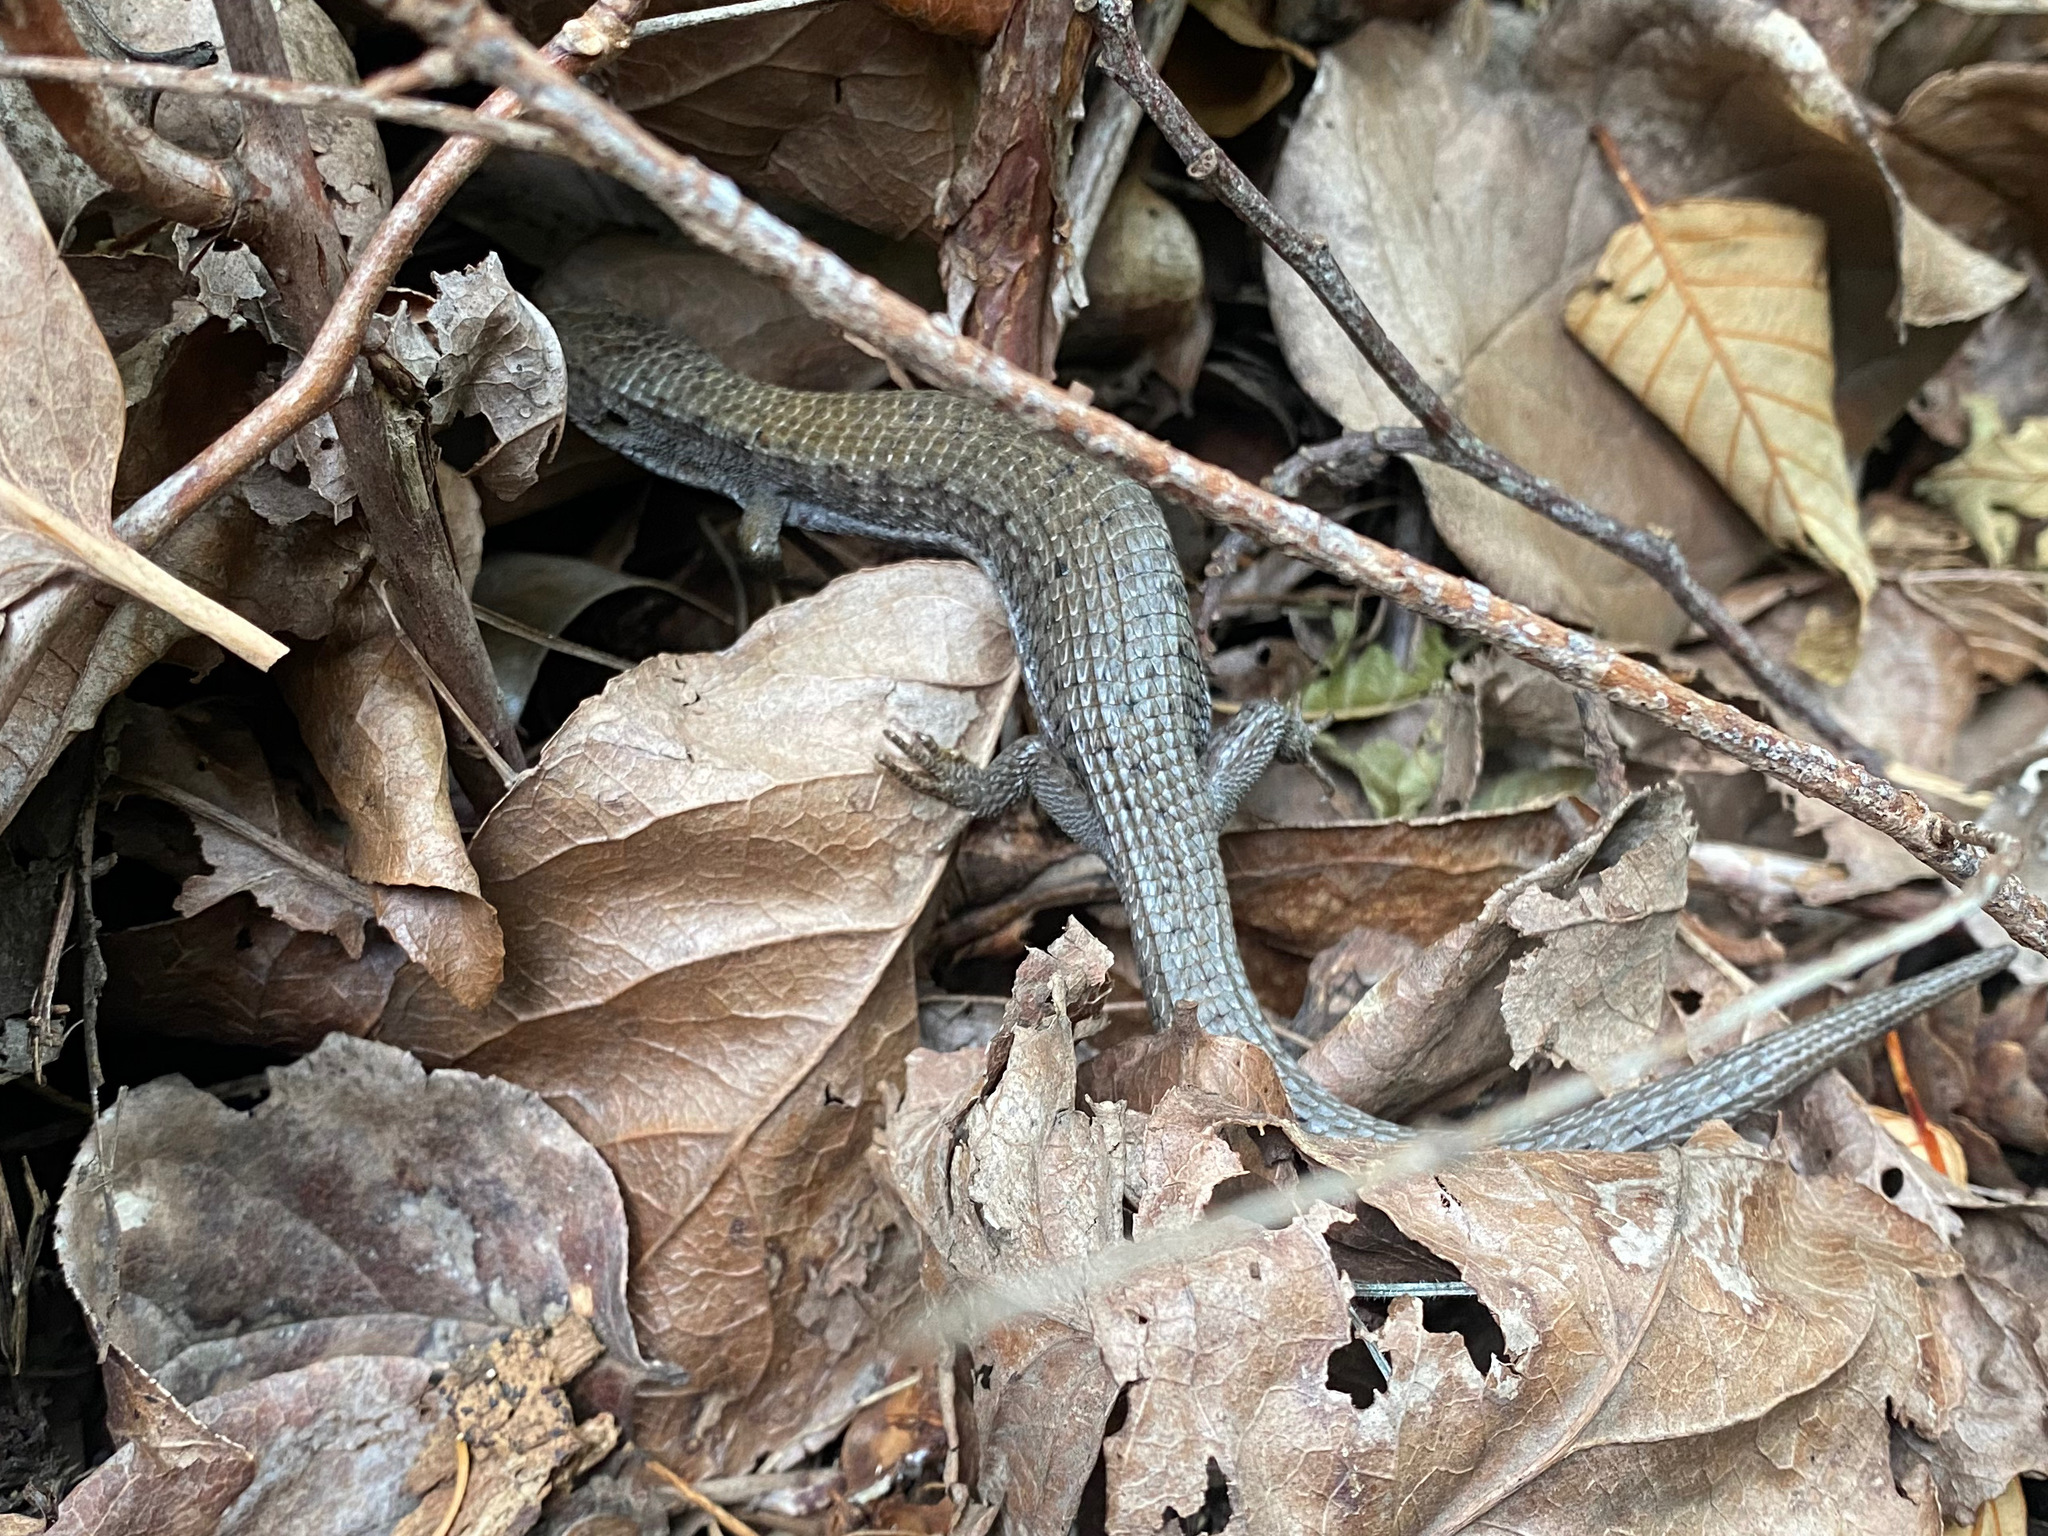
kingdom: Animalia
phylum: Chordata
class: Squamata
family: Anguidae
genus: Elgaria
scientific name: Elgaria coerulea
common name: Northern alligator lizard
